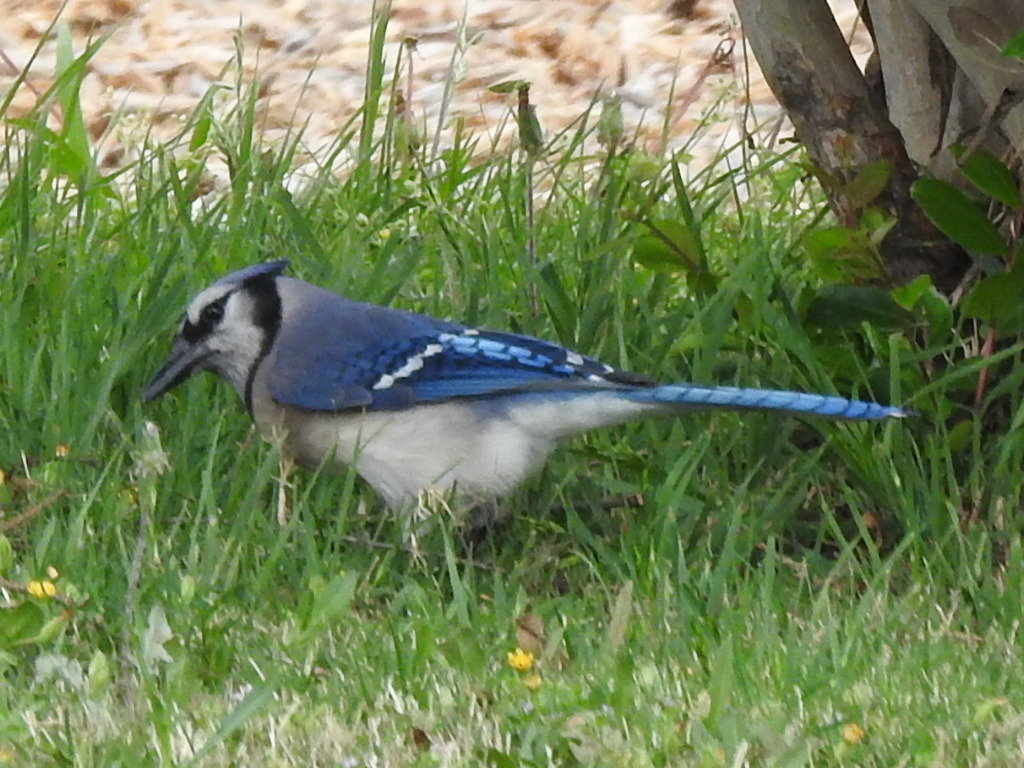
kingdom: Animalia
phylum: Chordata
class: Aves
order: Passeriformes
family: Corvidae
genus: Cyanocitta
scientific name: Cyanocitta cristata
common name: Blue jay
